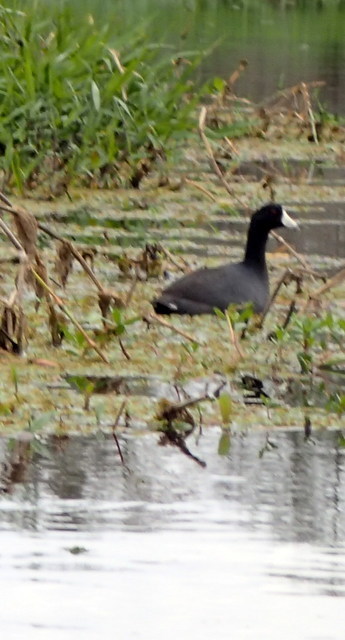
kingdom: Animalia
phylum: Chordata
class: Aves
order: Gruiformes
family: Rallidae
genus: Fulica
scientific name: Fulica americana
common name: American coot
